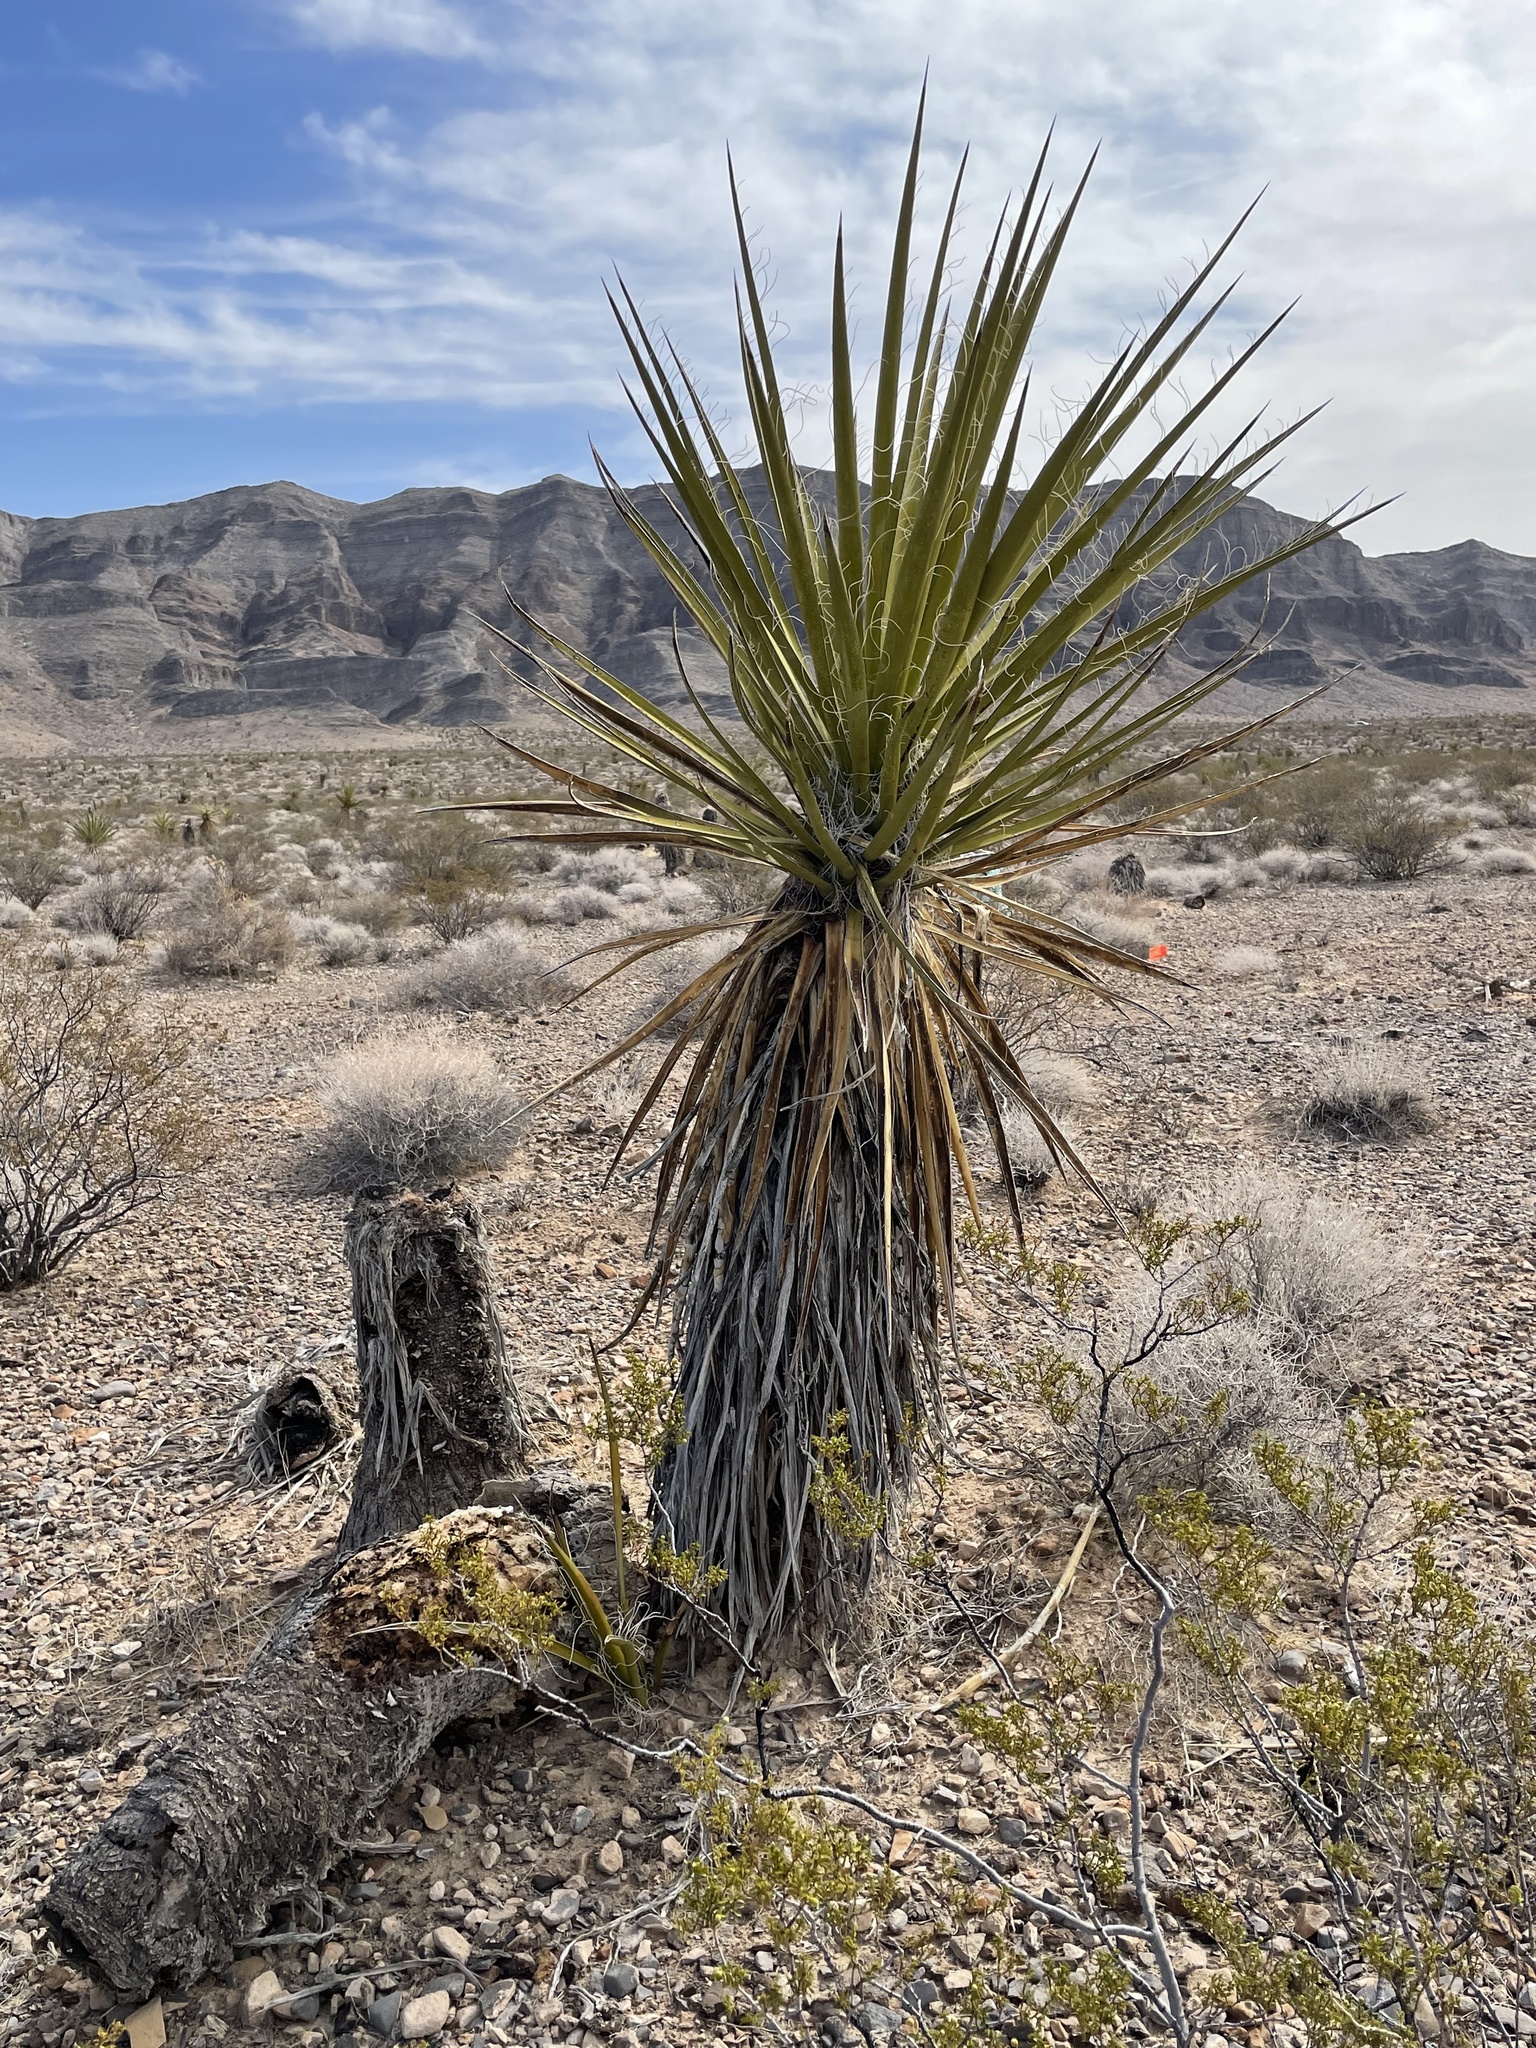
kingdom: Plantae
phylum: Tracheophyta
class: Liliopsida
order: Asparagales
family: Asparagaceae
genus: Yucca
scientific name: Yucca schidigera
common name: Mojave yucca
